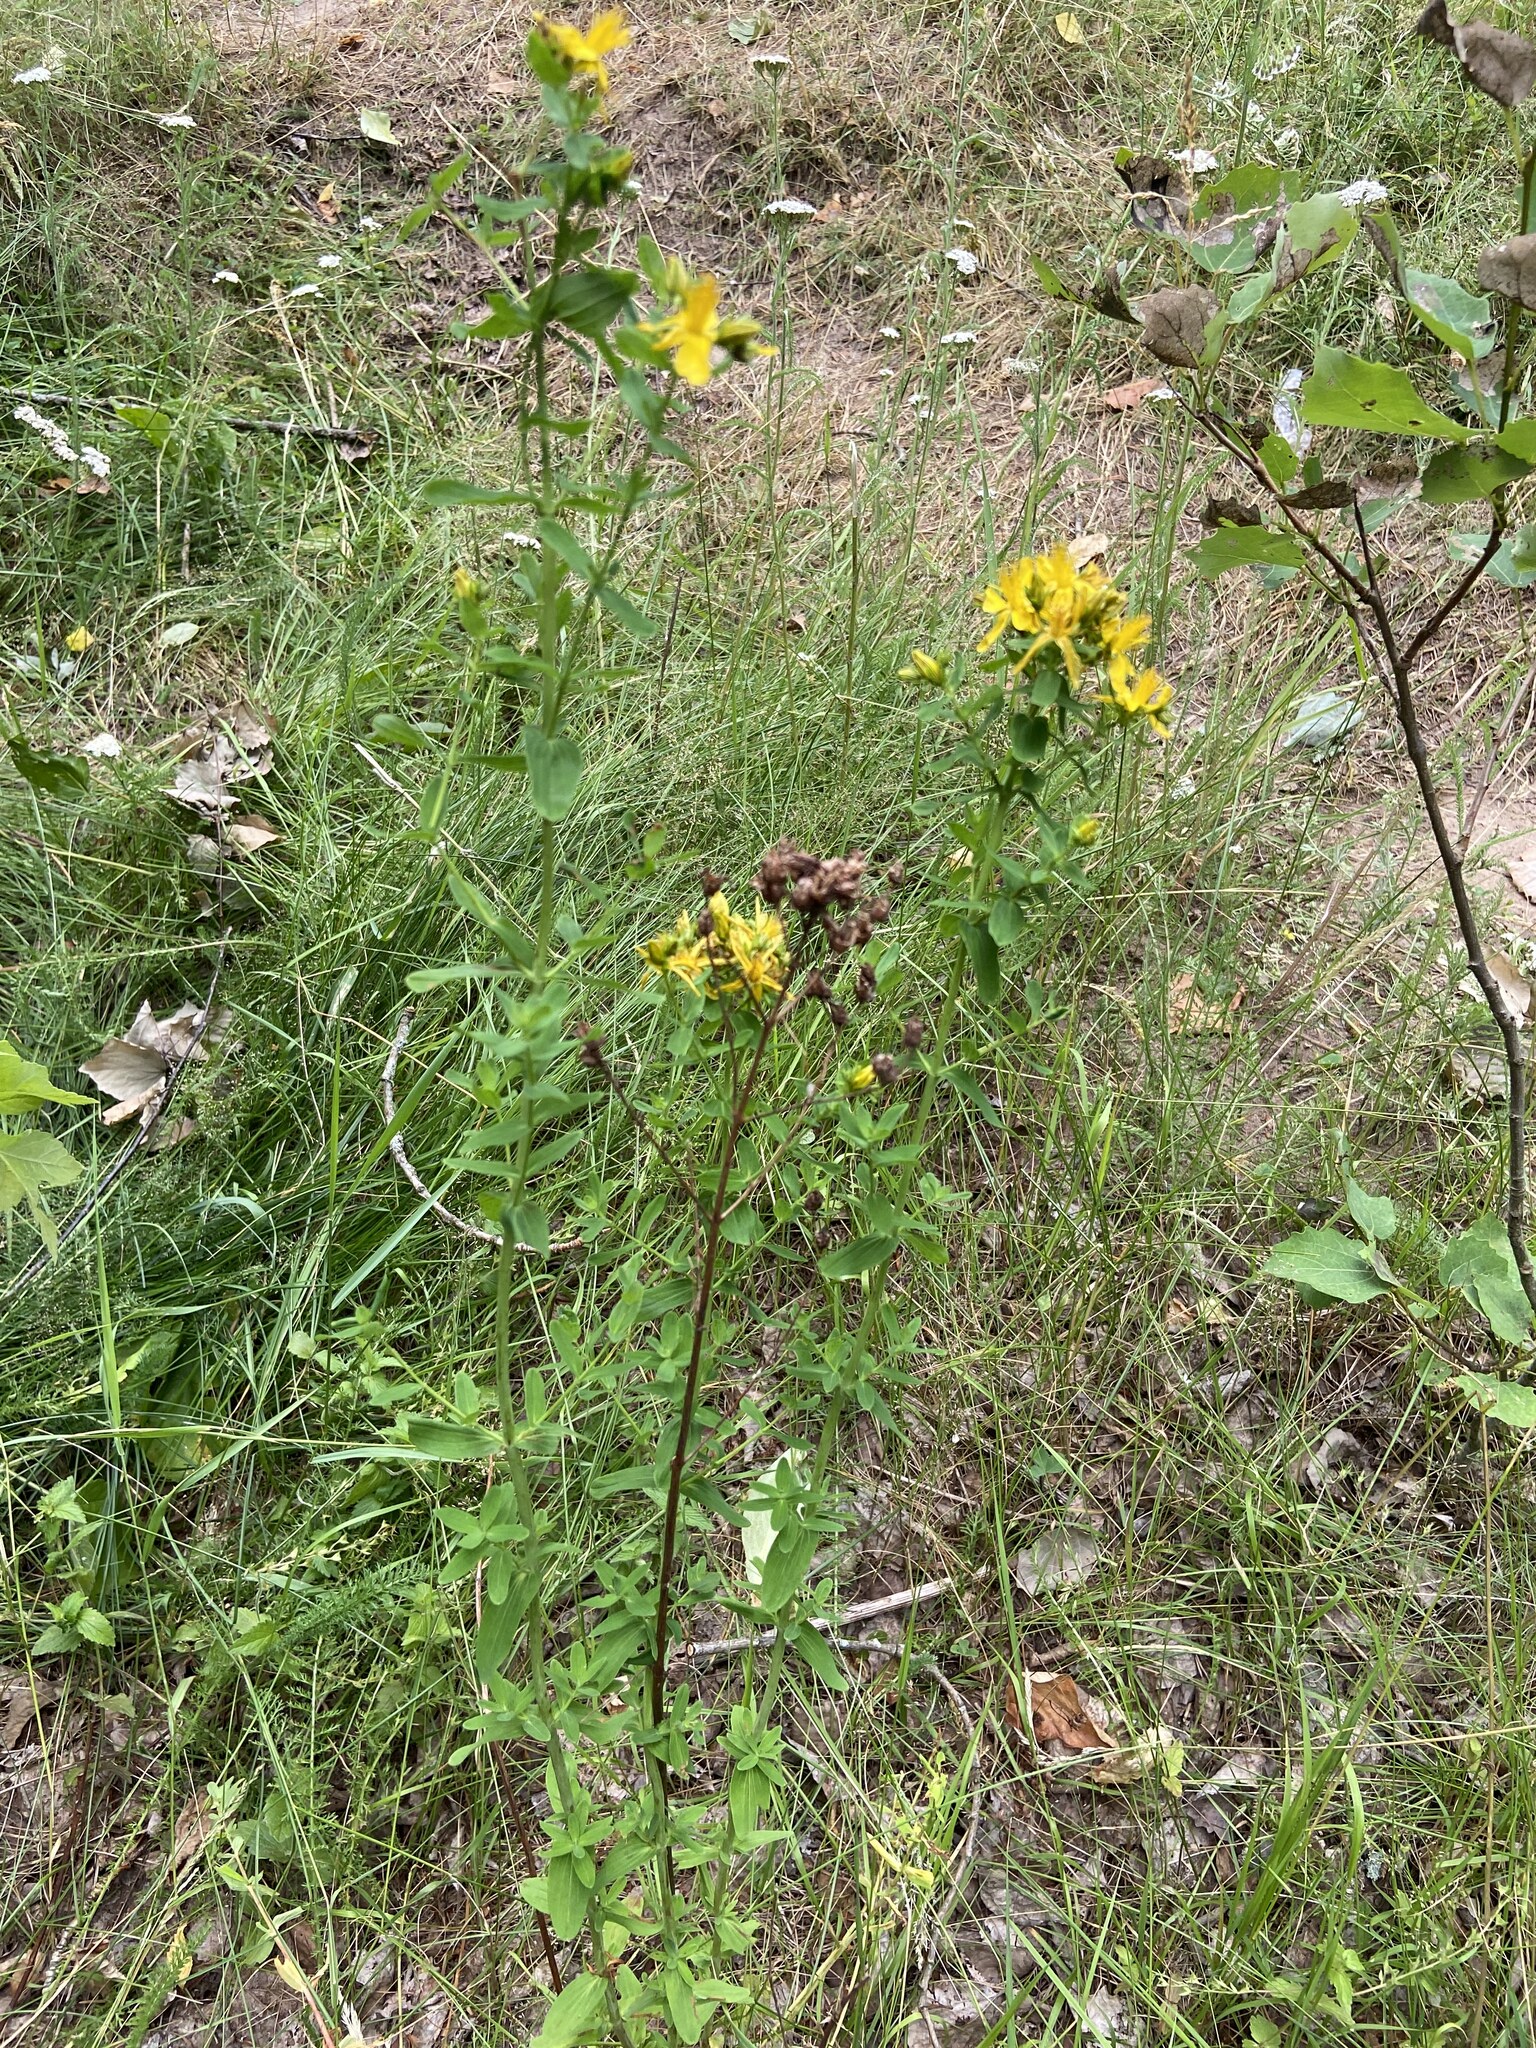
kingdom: Plantae
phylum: Tracheophyta
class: Magnoliopsida
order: Malpighiales
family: Hypericaceae
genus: Hypericum
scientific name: Hypericum perforatum
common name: Common st. johnswort
